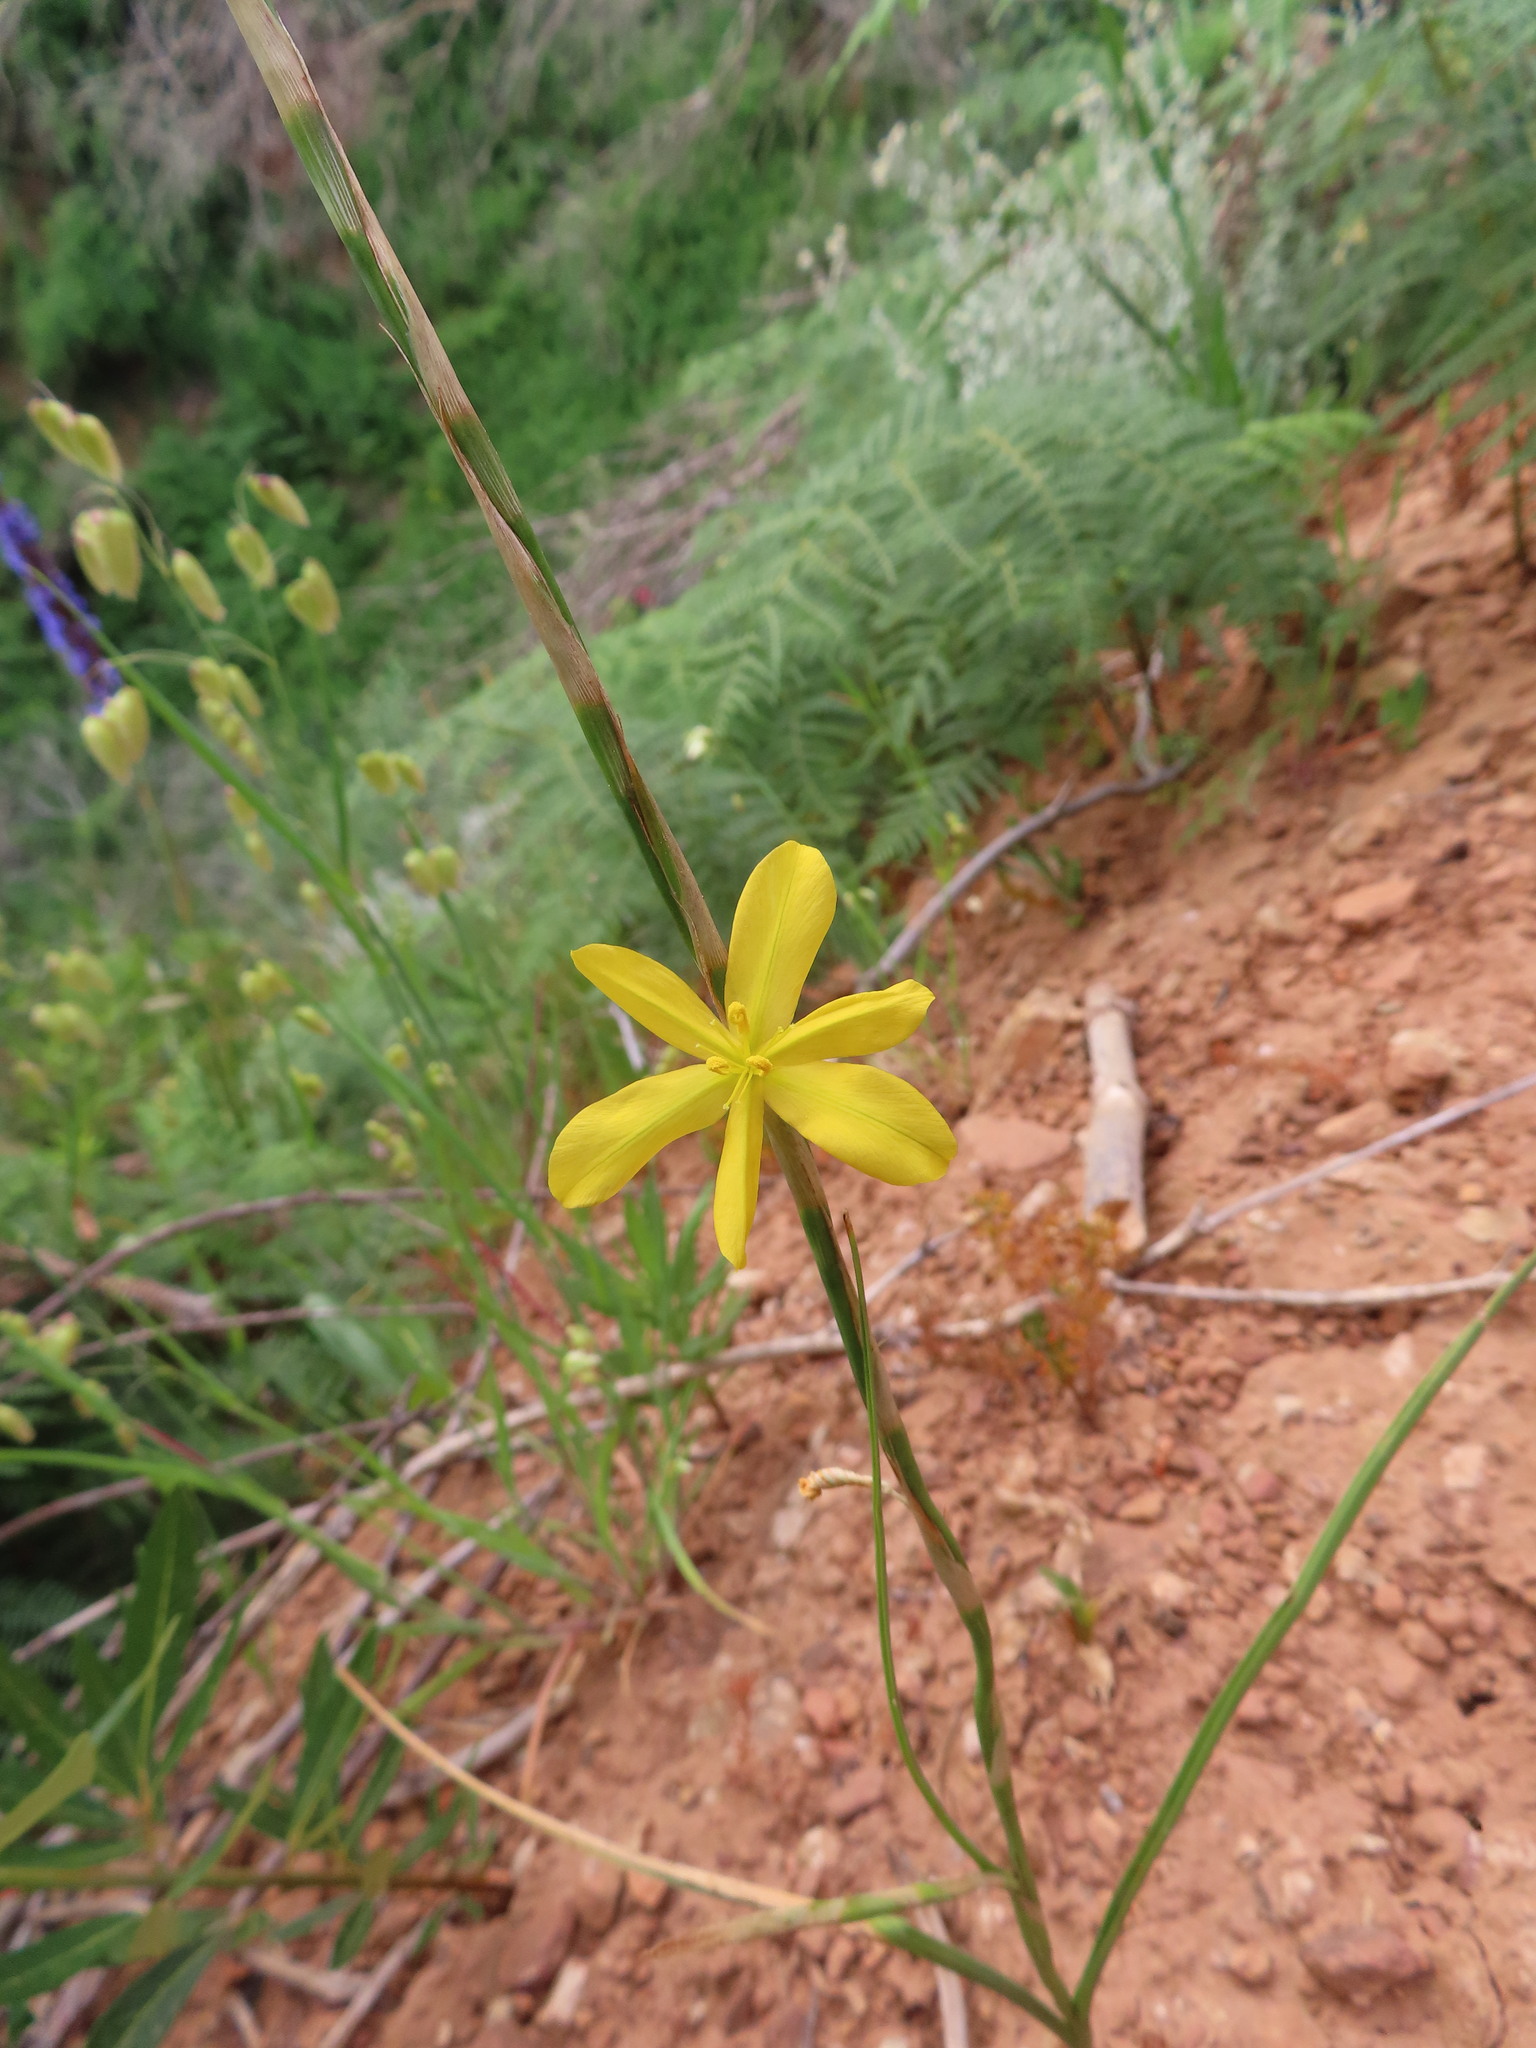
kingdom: Plantae
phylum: Tracheophyta
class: Liliopsida
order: Asparagales
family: Iridaceae
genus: Moraea
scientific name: Moraea lewisiae
